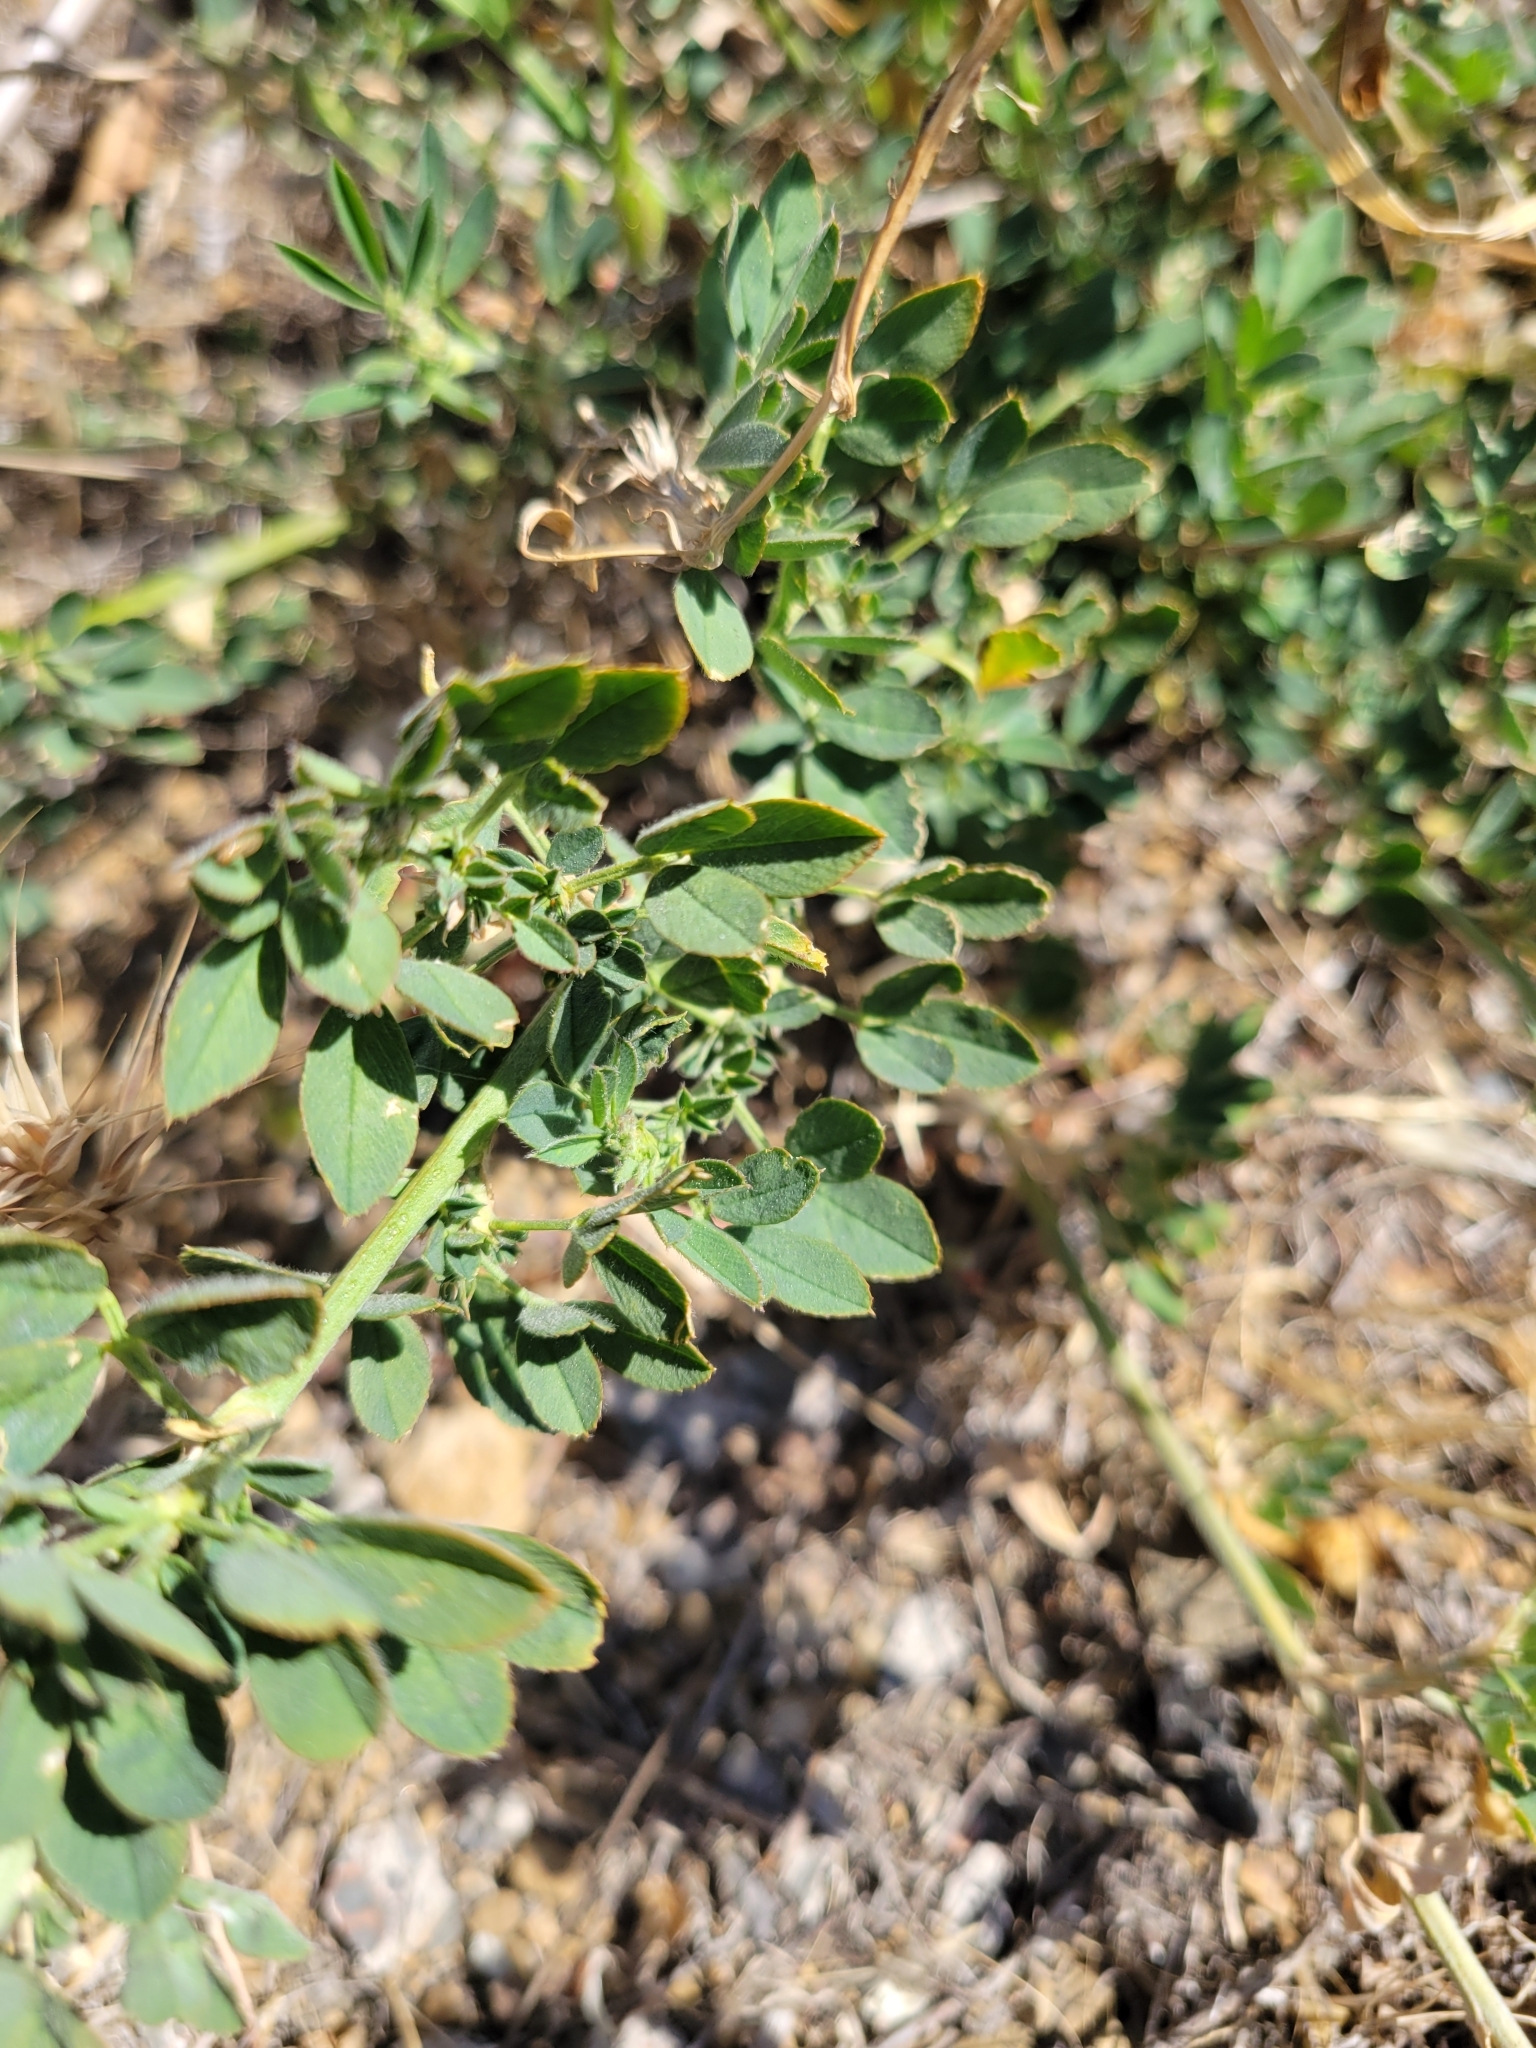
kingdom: Plantae
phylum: Tracheophyta
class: Magnoliopsida
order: Fabales
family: Fabaceae
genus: Medicago
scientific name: Medicago sativa
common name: Alfalfa
